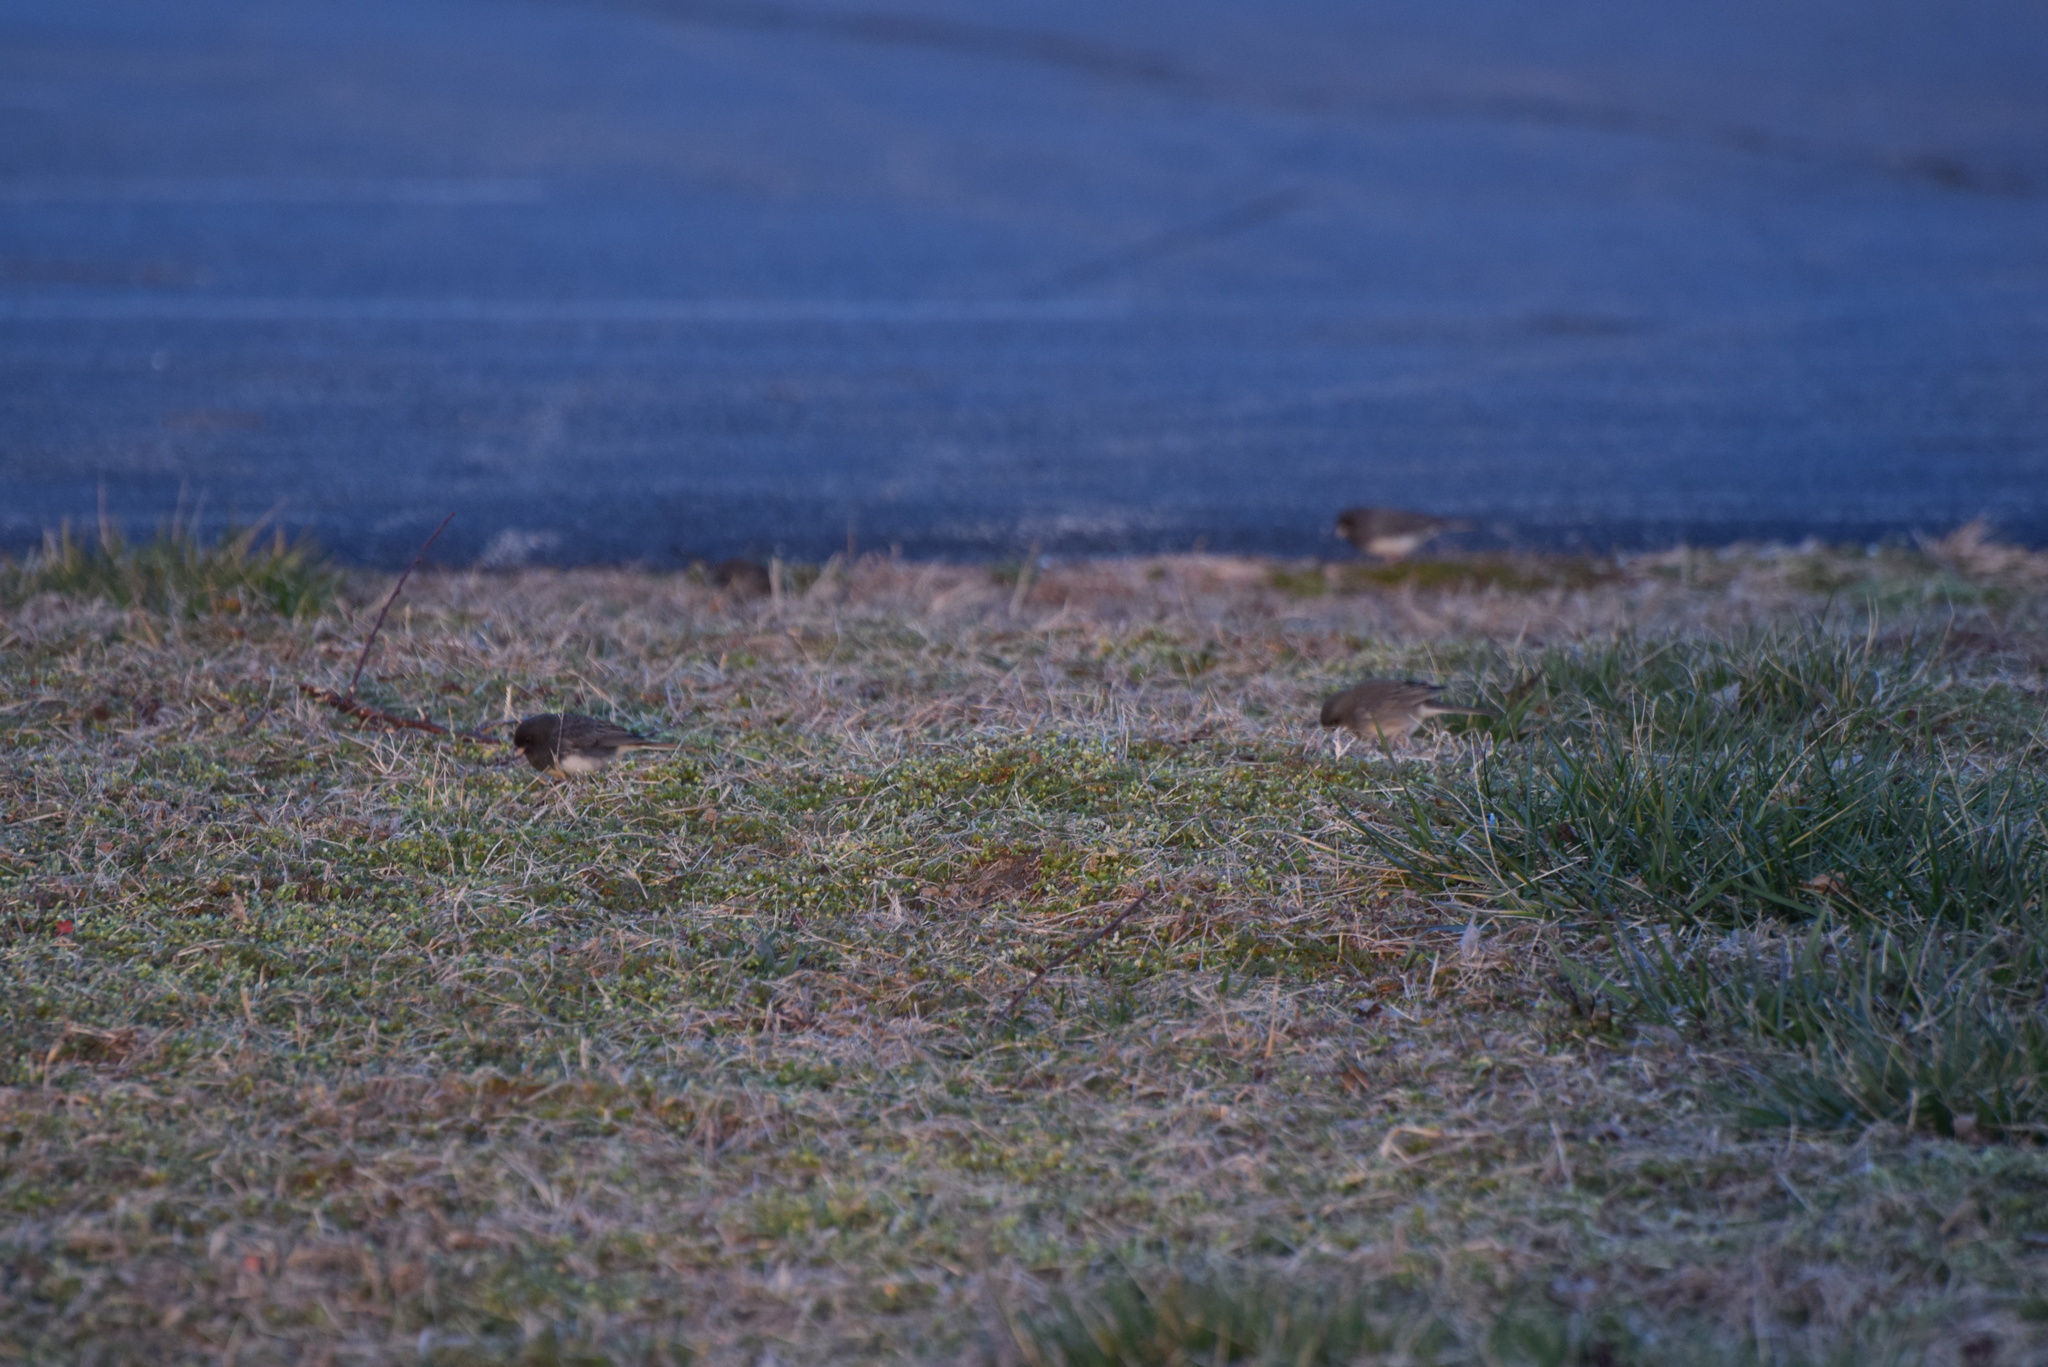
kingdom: Animalia
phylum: Chordata
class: Aves
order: Passeriformes
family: Passerellidae
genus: Junco
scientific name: Junco hyemalis
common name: Dark-eyed junco
